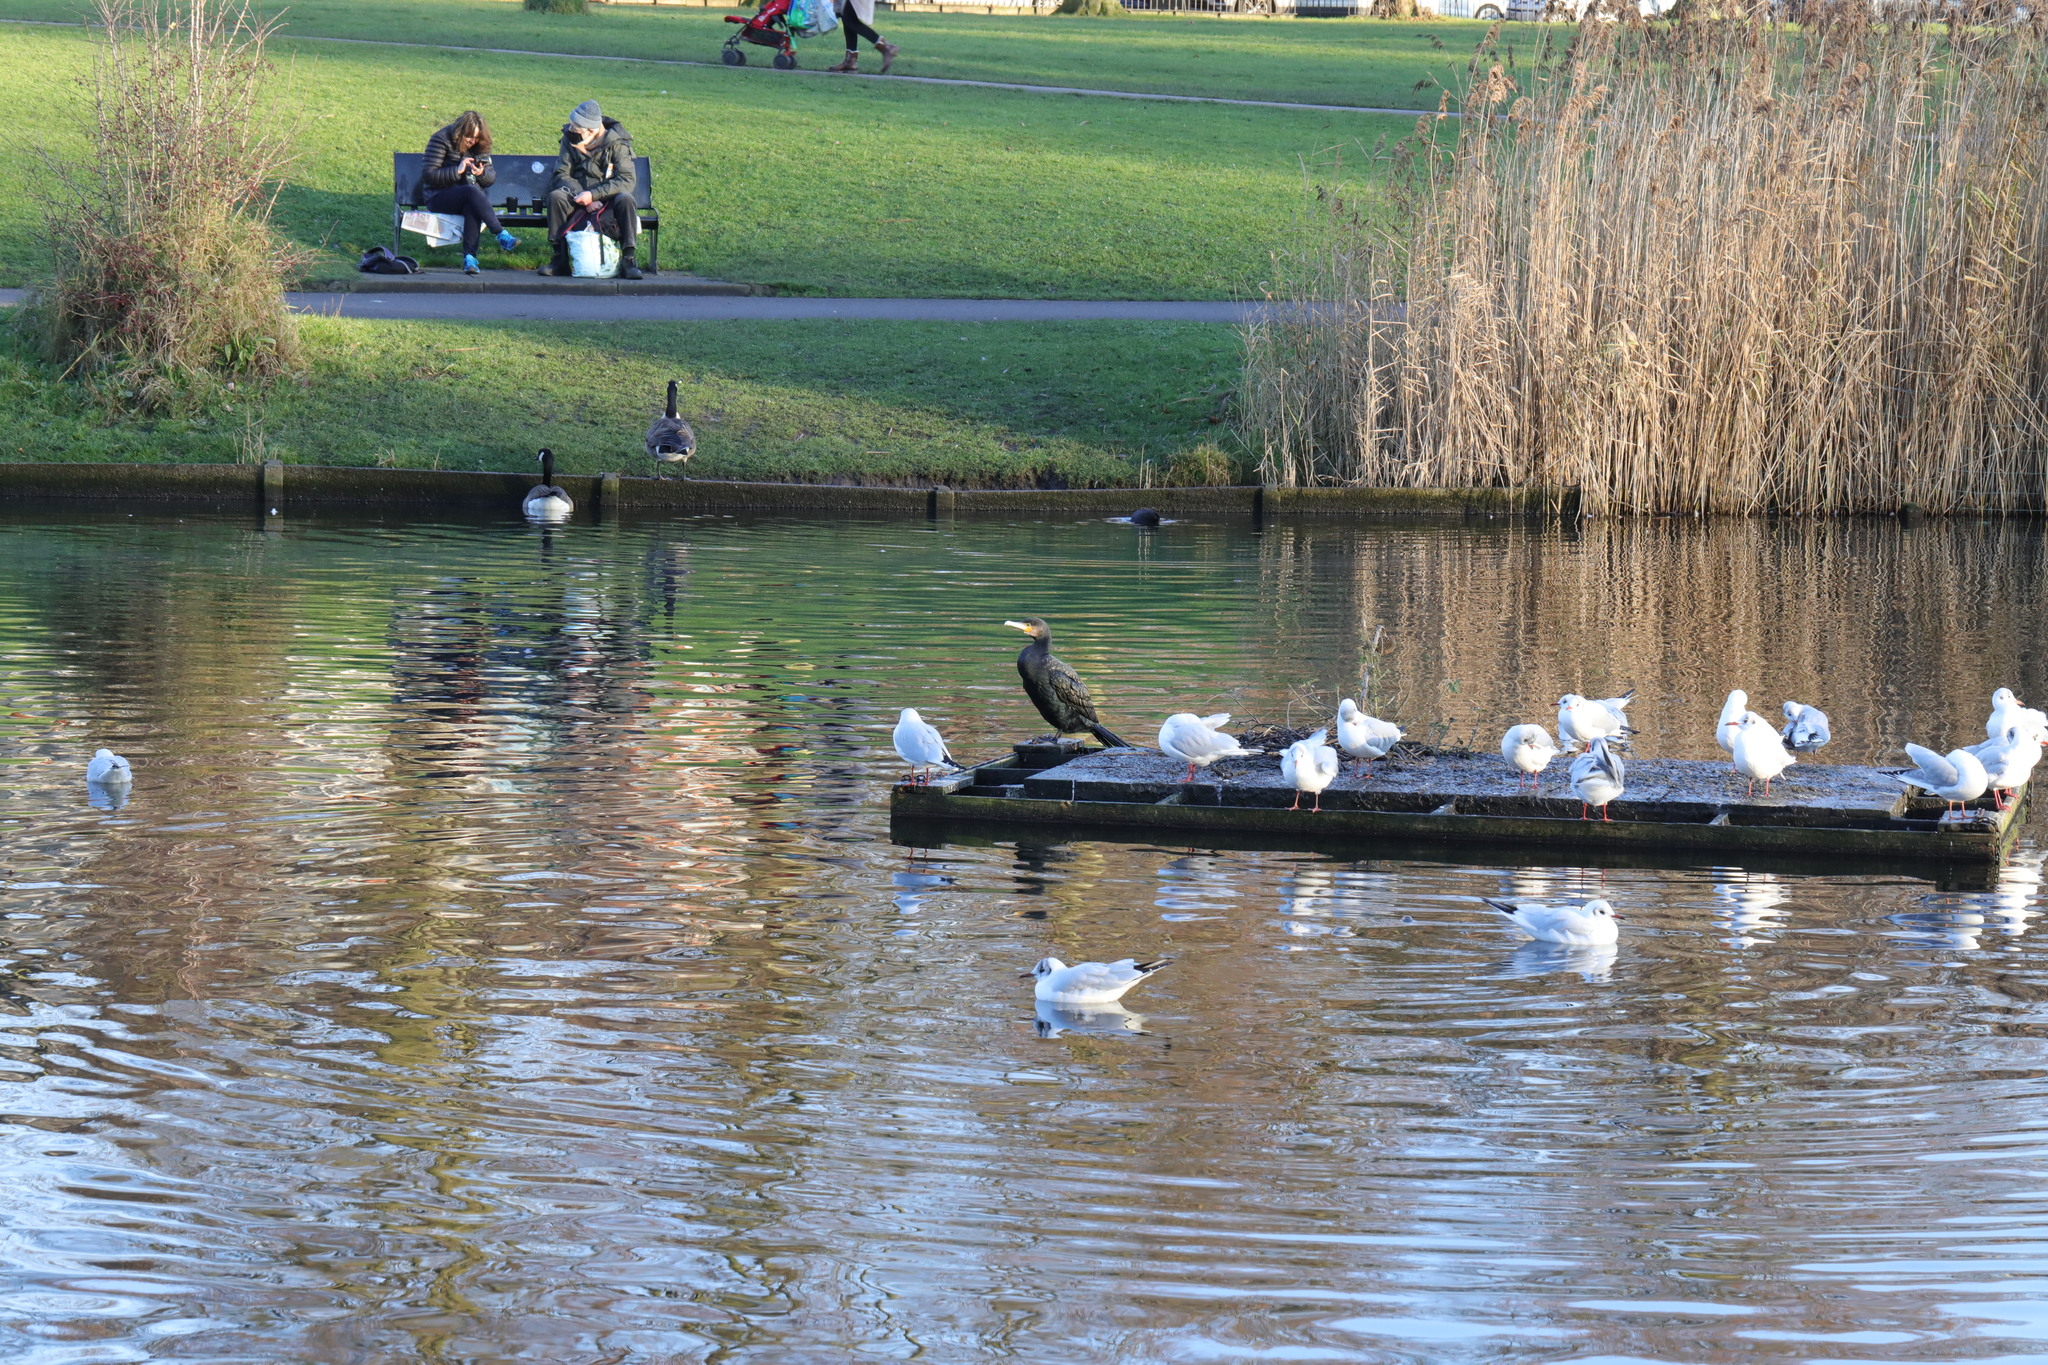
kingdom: Animalia
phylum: Chordata
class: Aves
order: Suliformes
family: Phalacrocoracidae
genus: Phalacrocorax
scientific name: Phalacrocorax carbo
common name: Great cormorant
